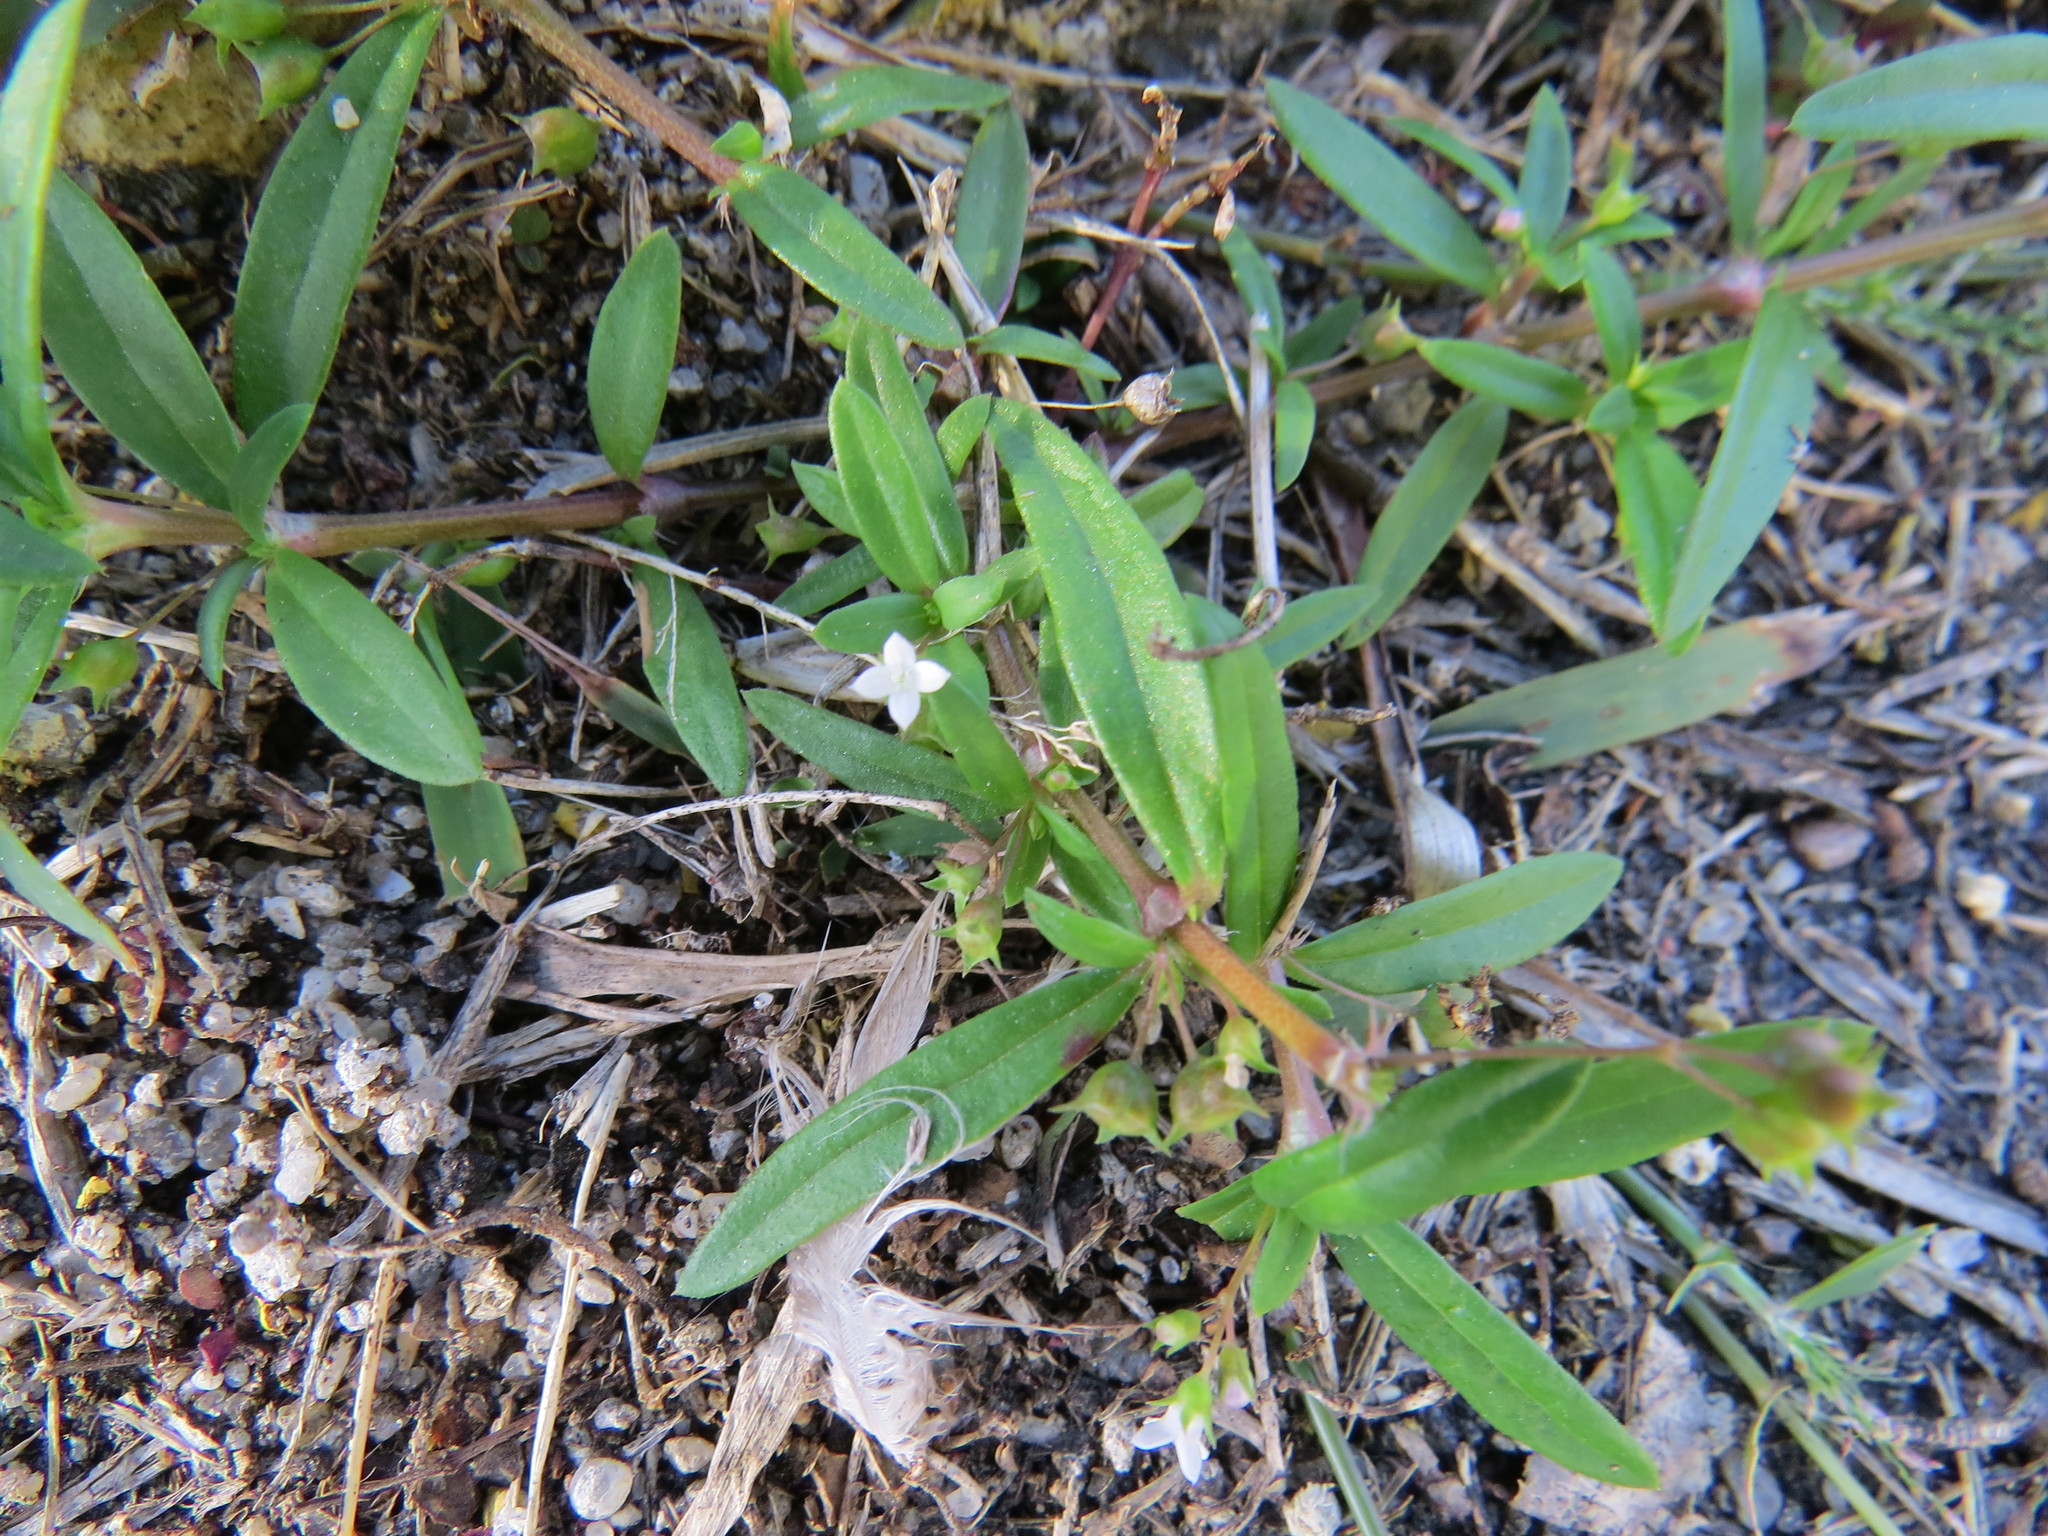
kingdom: Plantae
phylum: Tracheophyta
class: Magnoliopsida
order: Gentianales
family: Rubiaceae
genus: Oldenlandia
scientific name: Oldenlandia corymbosa
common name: Flat-top mille graines
